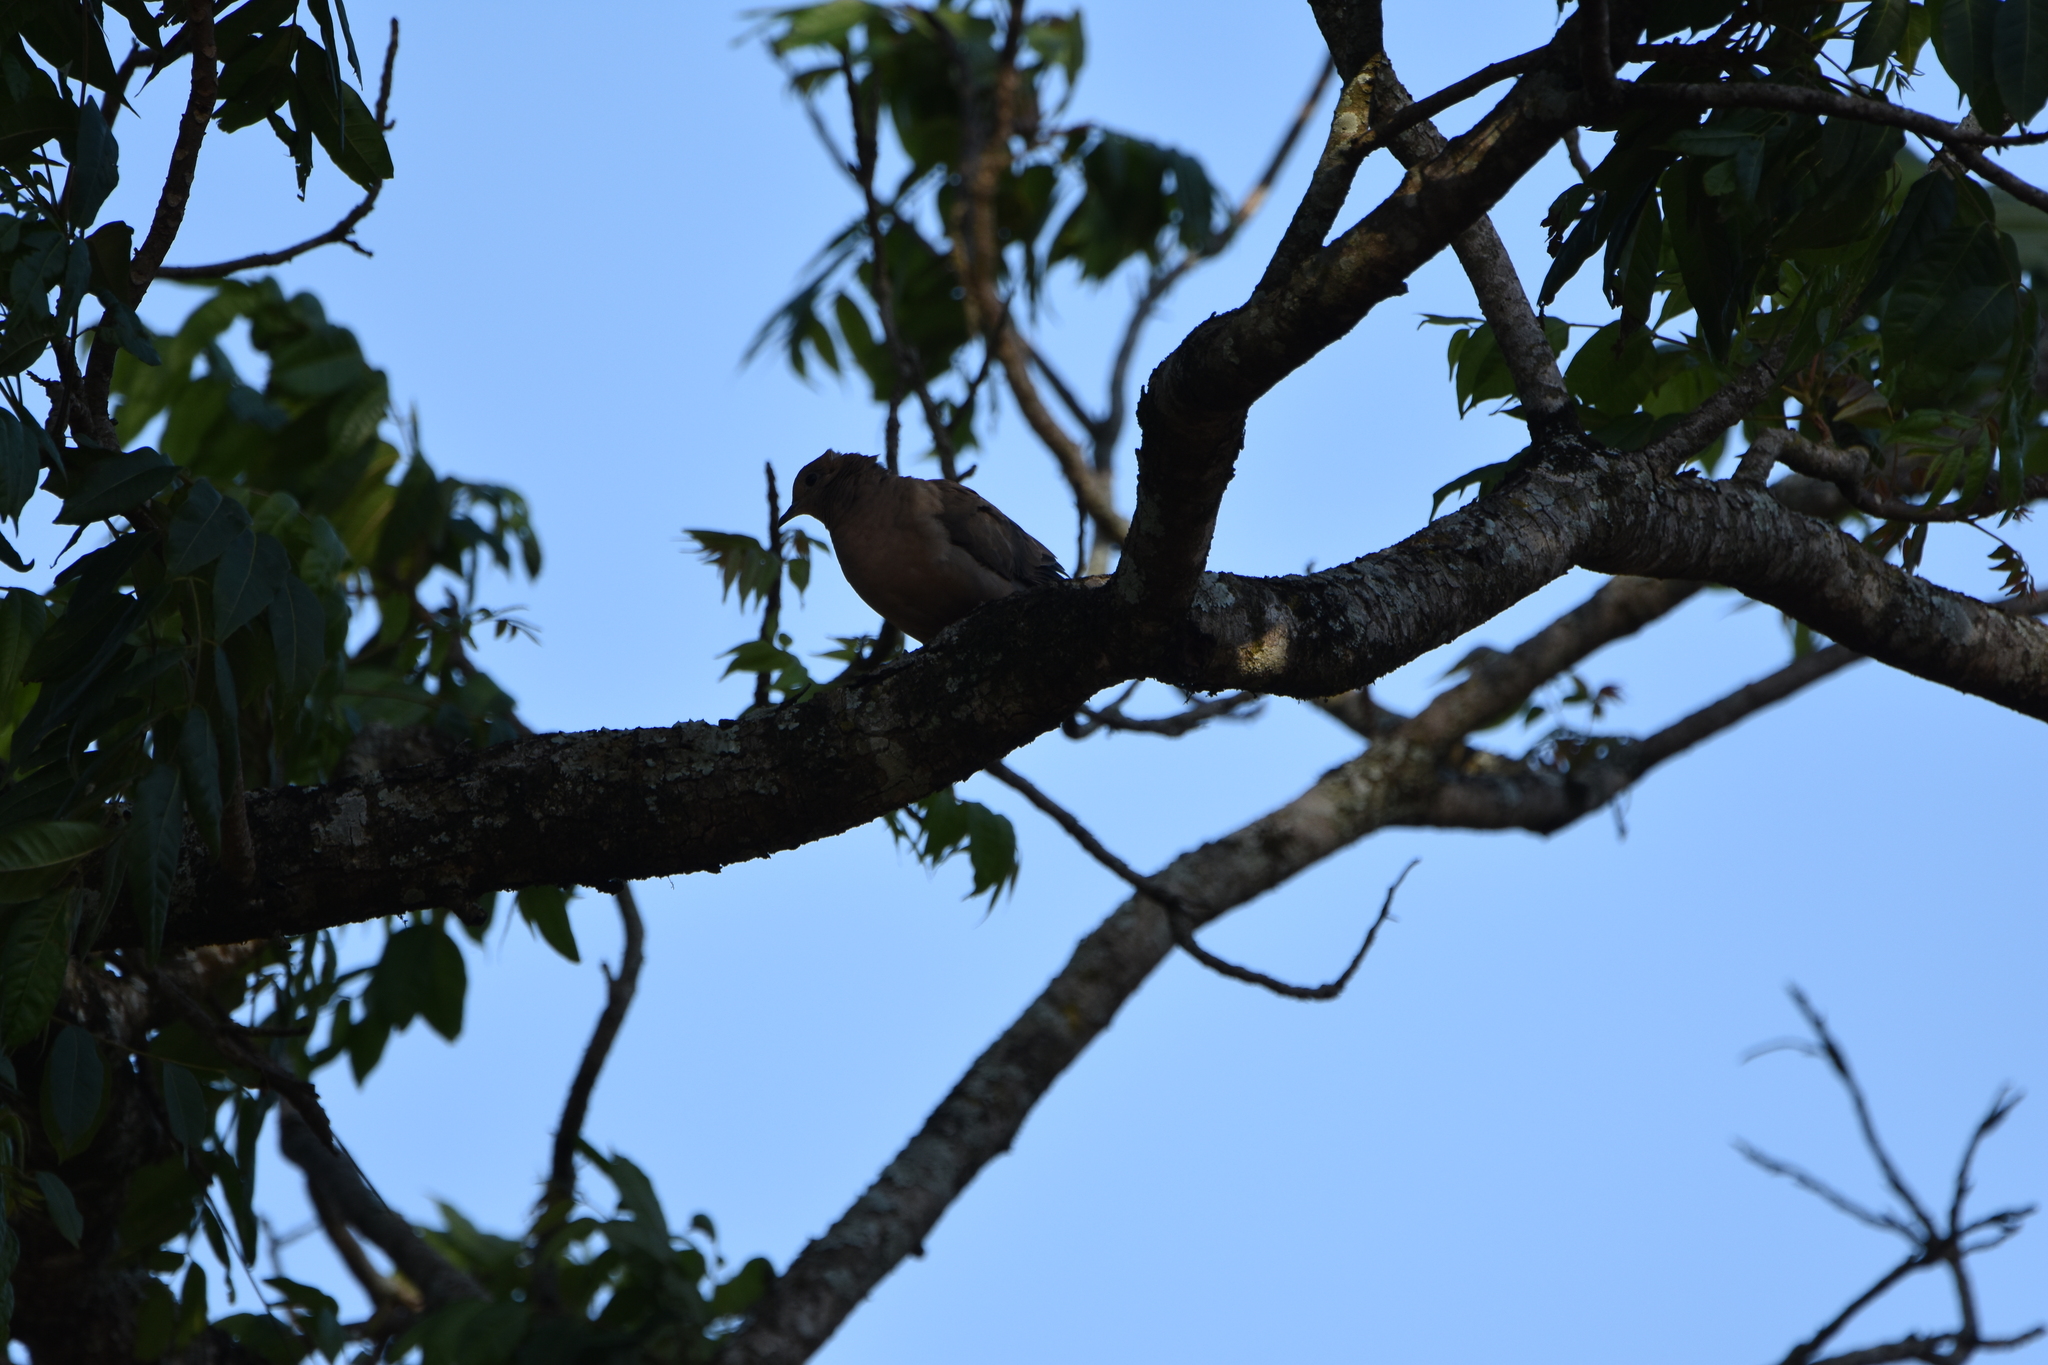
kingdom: Animalia
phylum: Chordata
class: Aves
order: Columbiformes
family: Columbidae
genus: Zenaida
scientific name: Zenaida auriculata
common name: Eared dove
